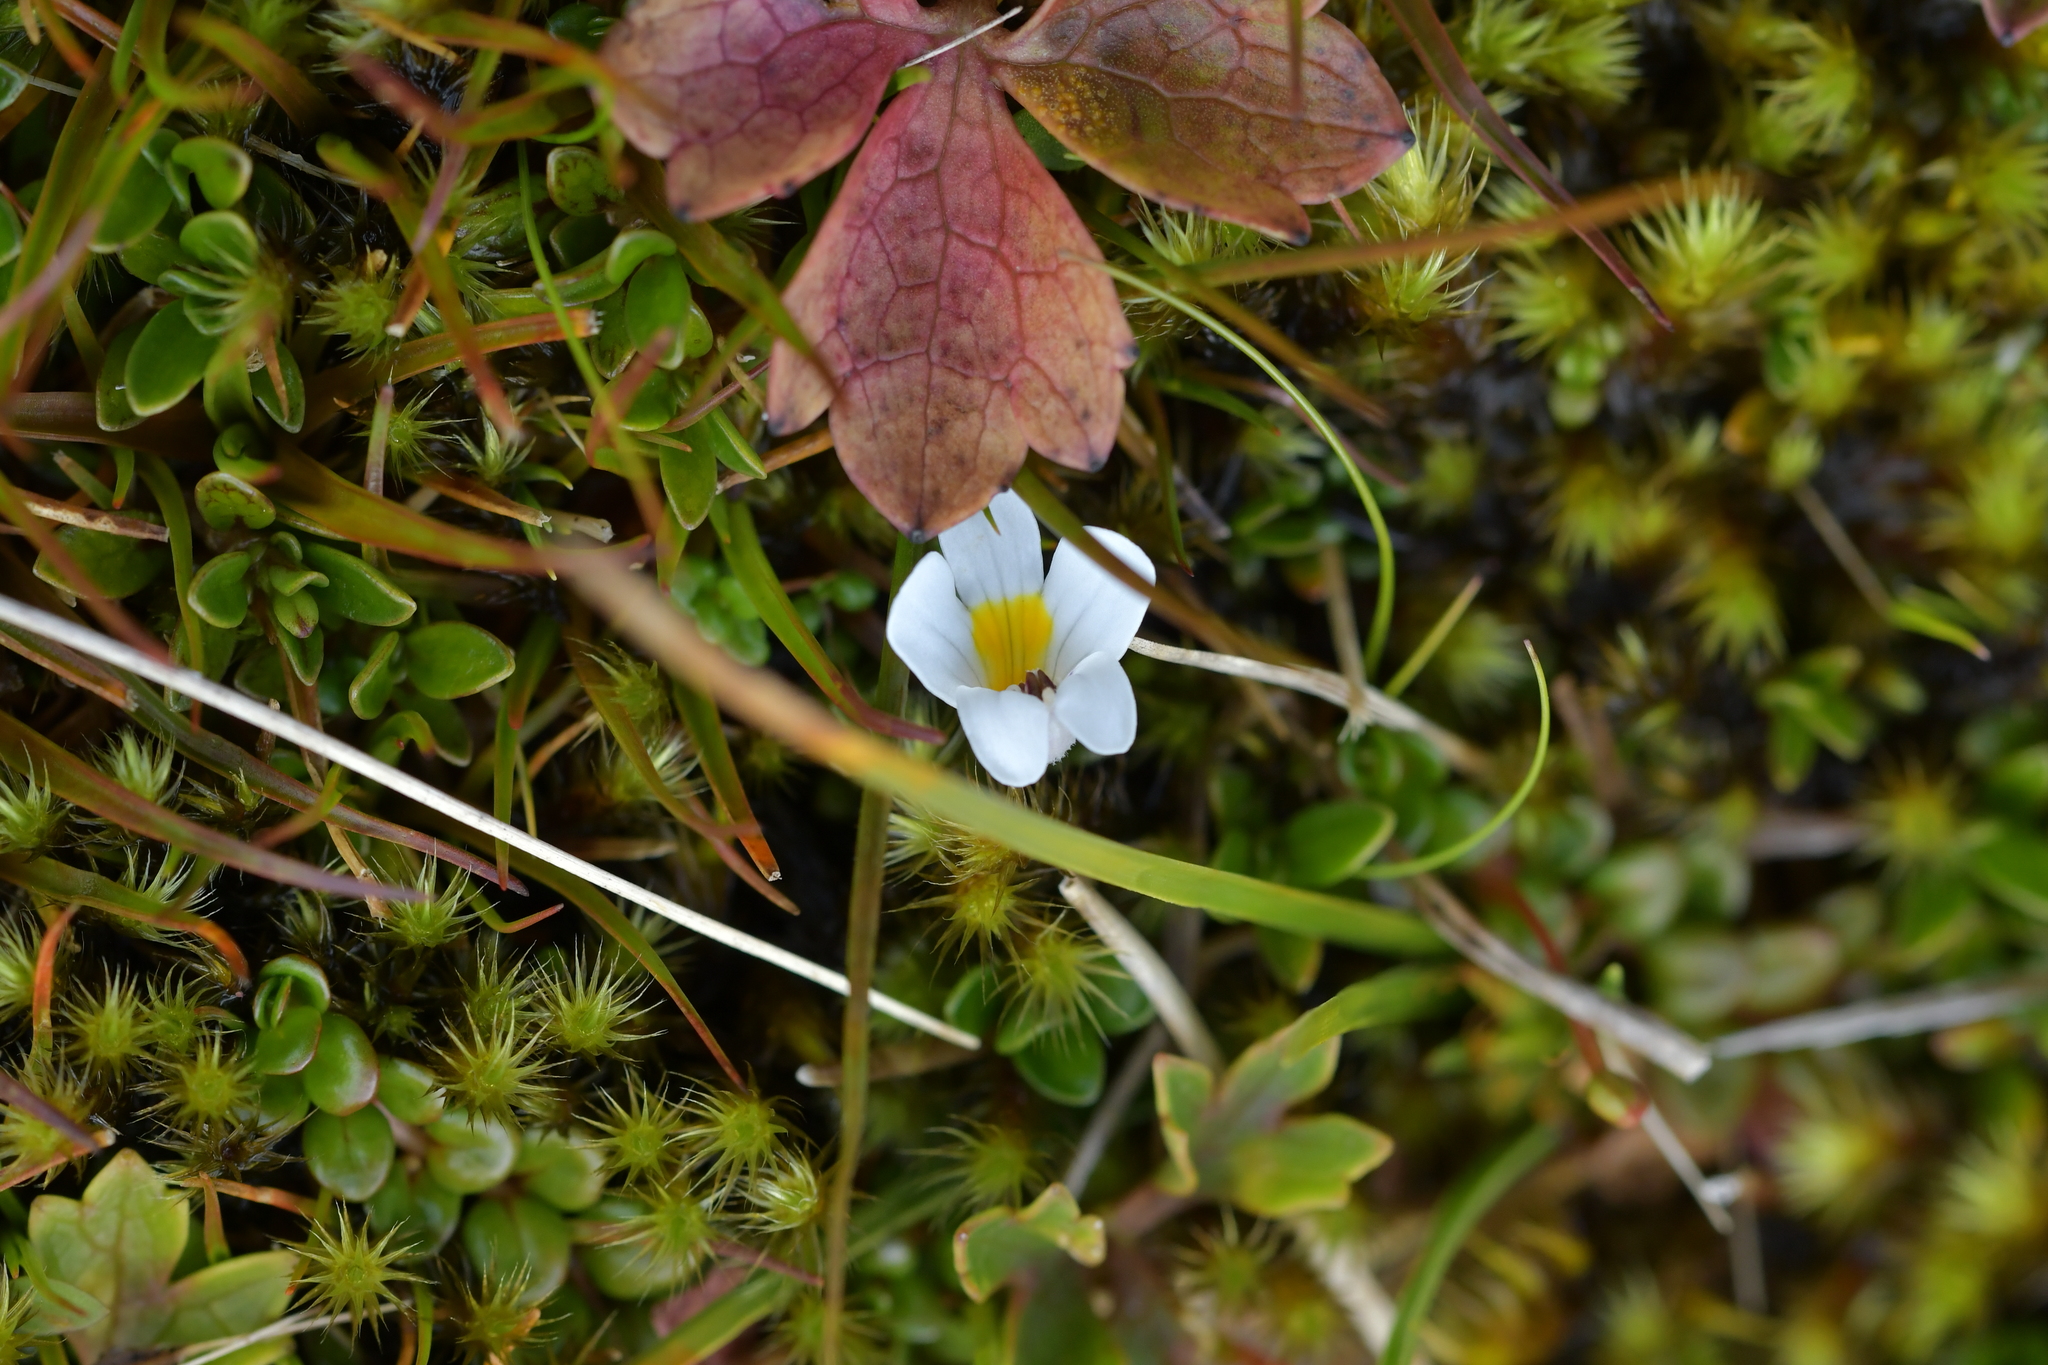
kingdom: Plantae
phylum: Tracheophyta
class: Magnoliopsida
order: Lamiales
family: Orobanchaceae
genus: Euphrasia
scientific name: Euphrasia revoluta
